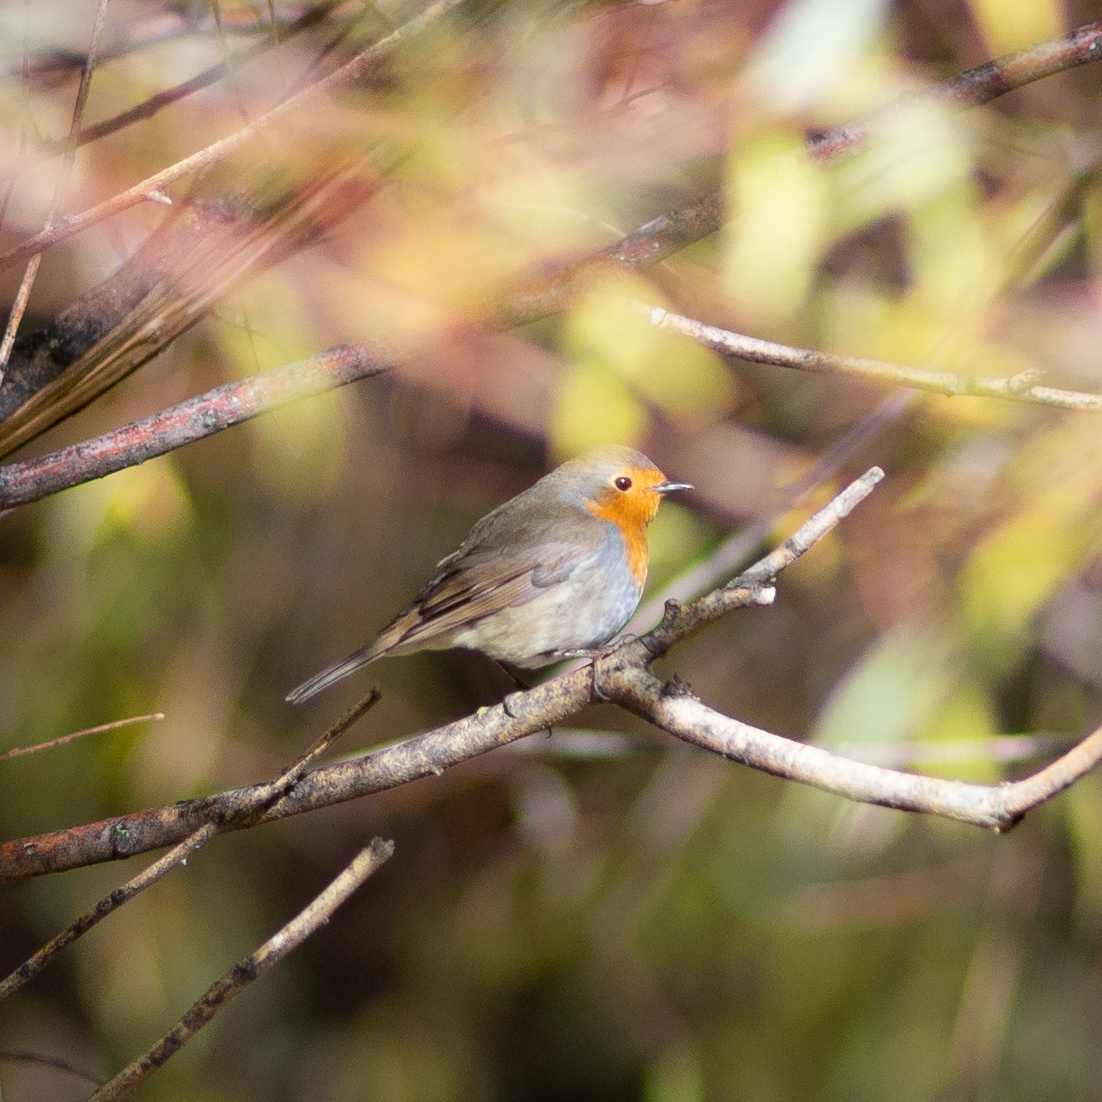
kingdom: Animalia
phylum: Chordata
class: Aves
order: Passeriformes
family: Muscicapidae
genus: Erithacus
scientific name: Erithacus rubecula
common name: European robin
